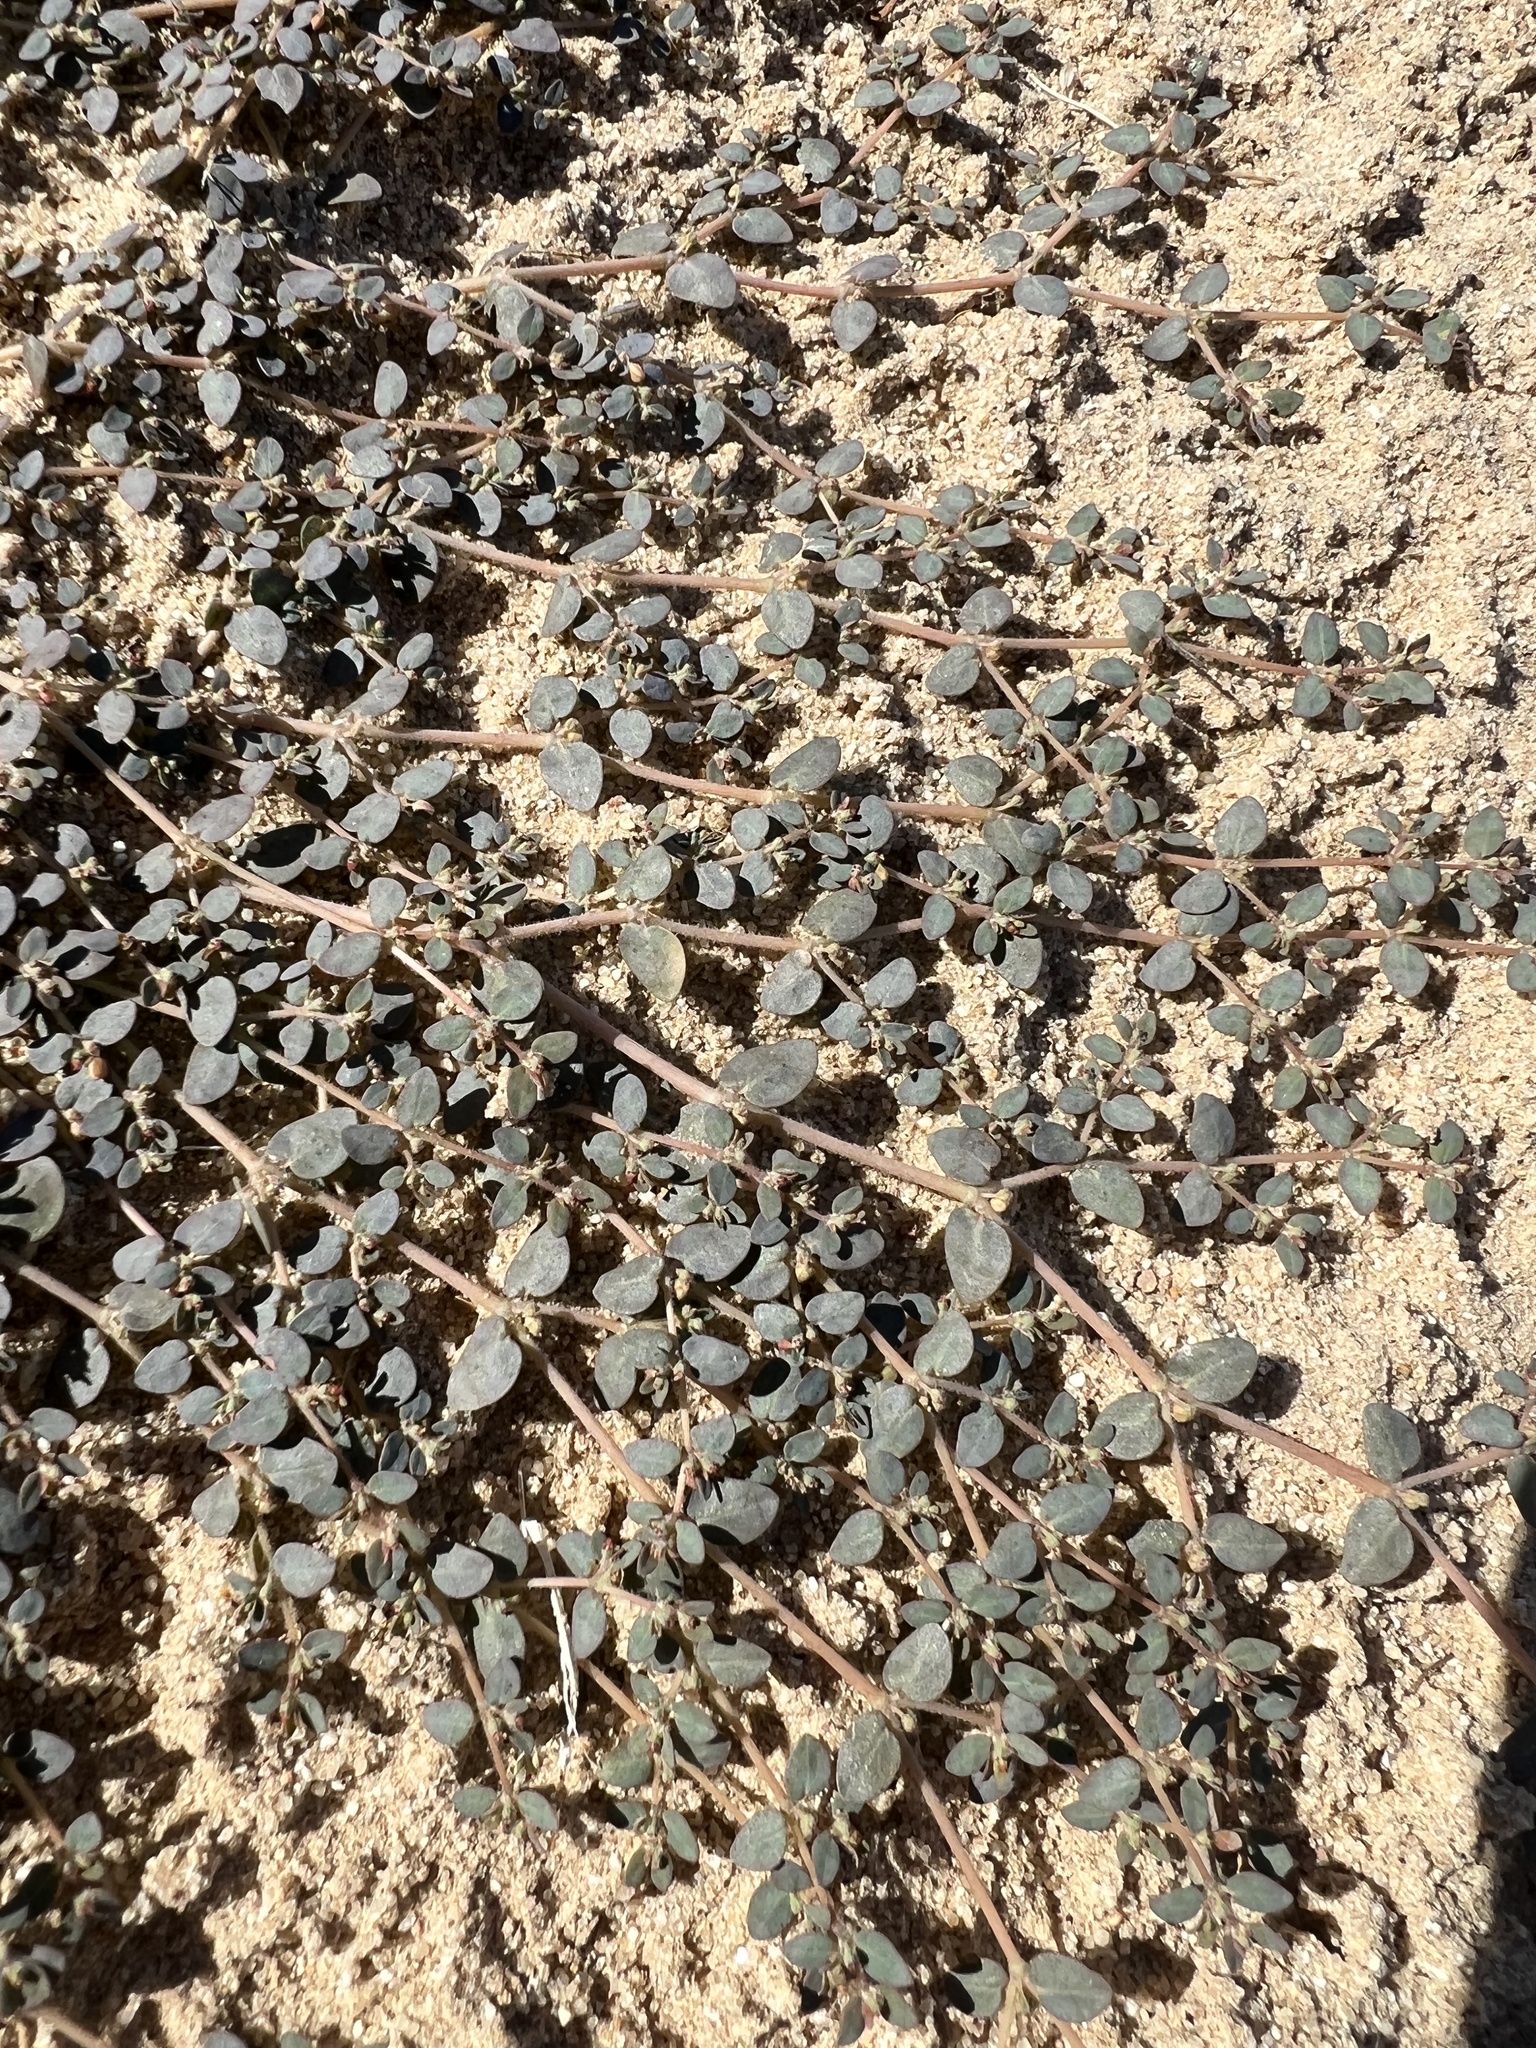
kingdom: Plantae
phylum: Tracheophyta
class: Magnoliopsida
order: Malpighiales
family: Euphorbiaceae
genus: Euphorbia
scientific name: Euphorbia micromera
